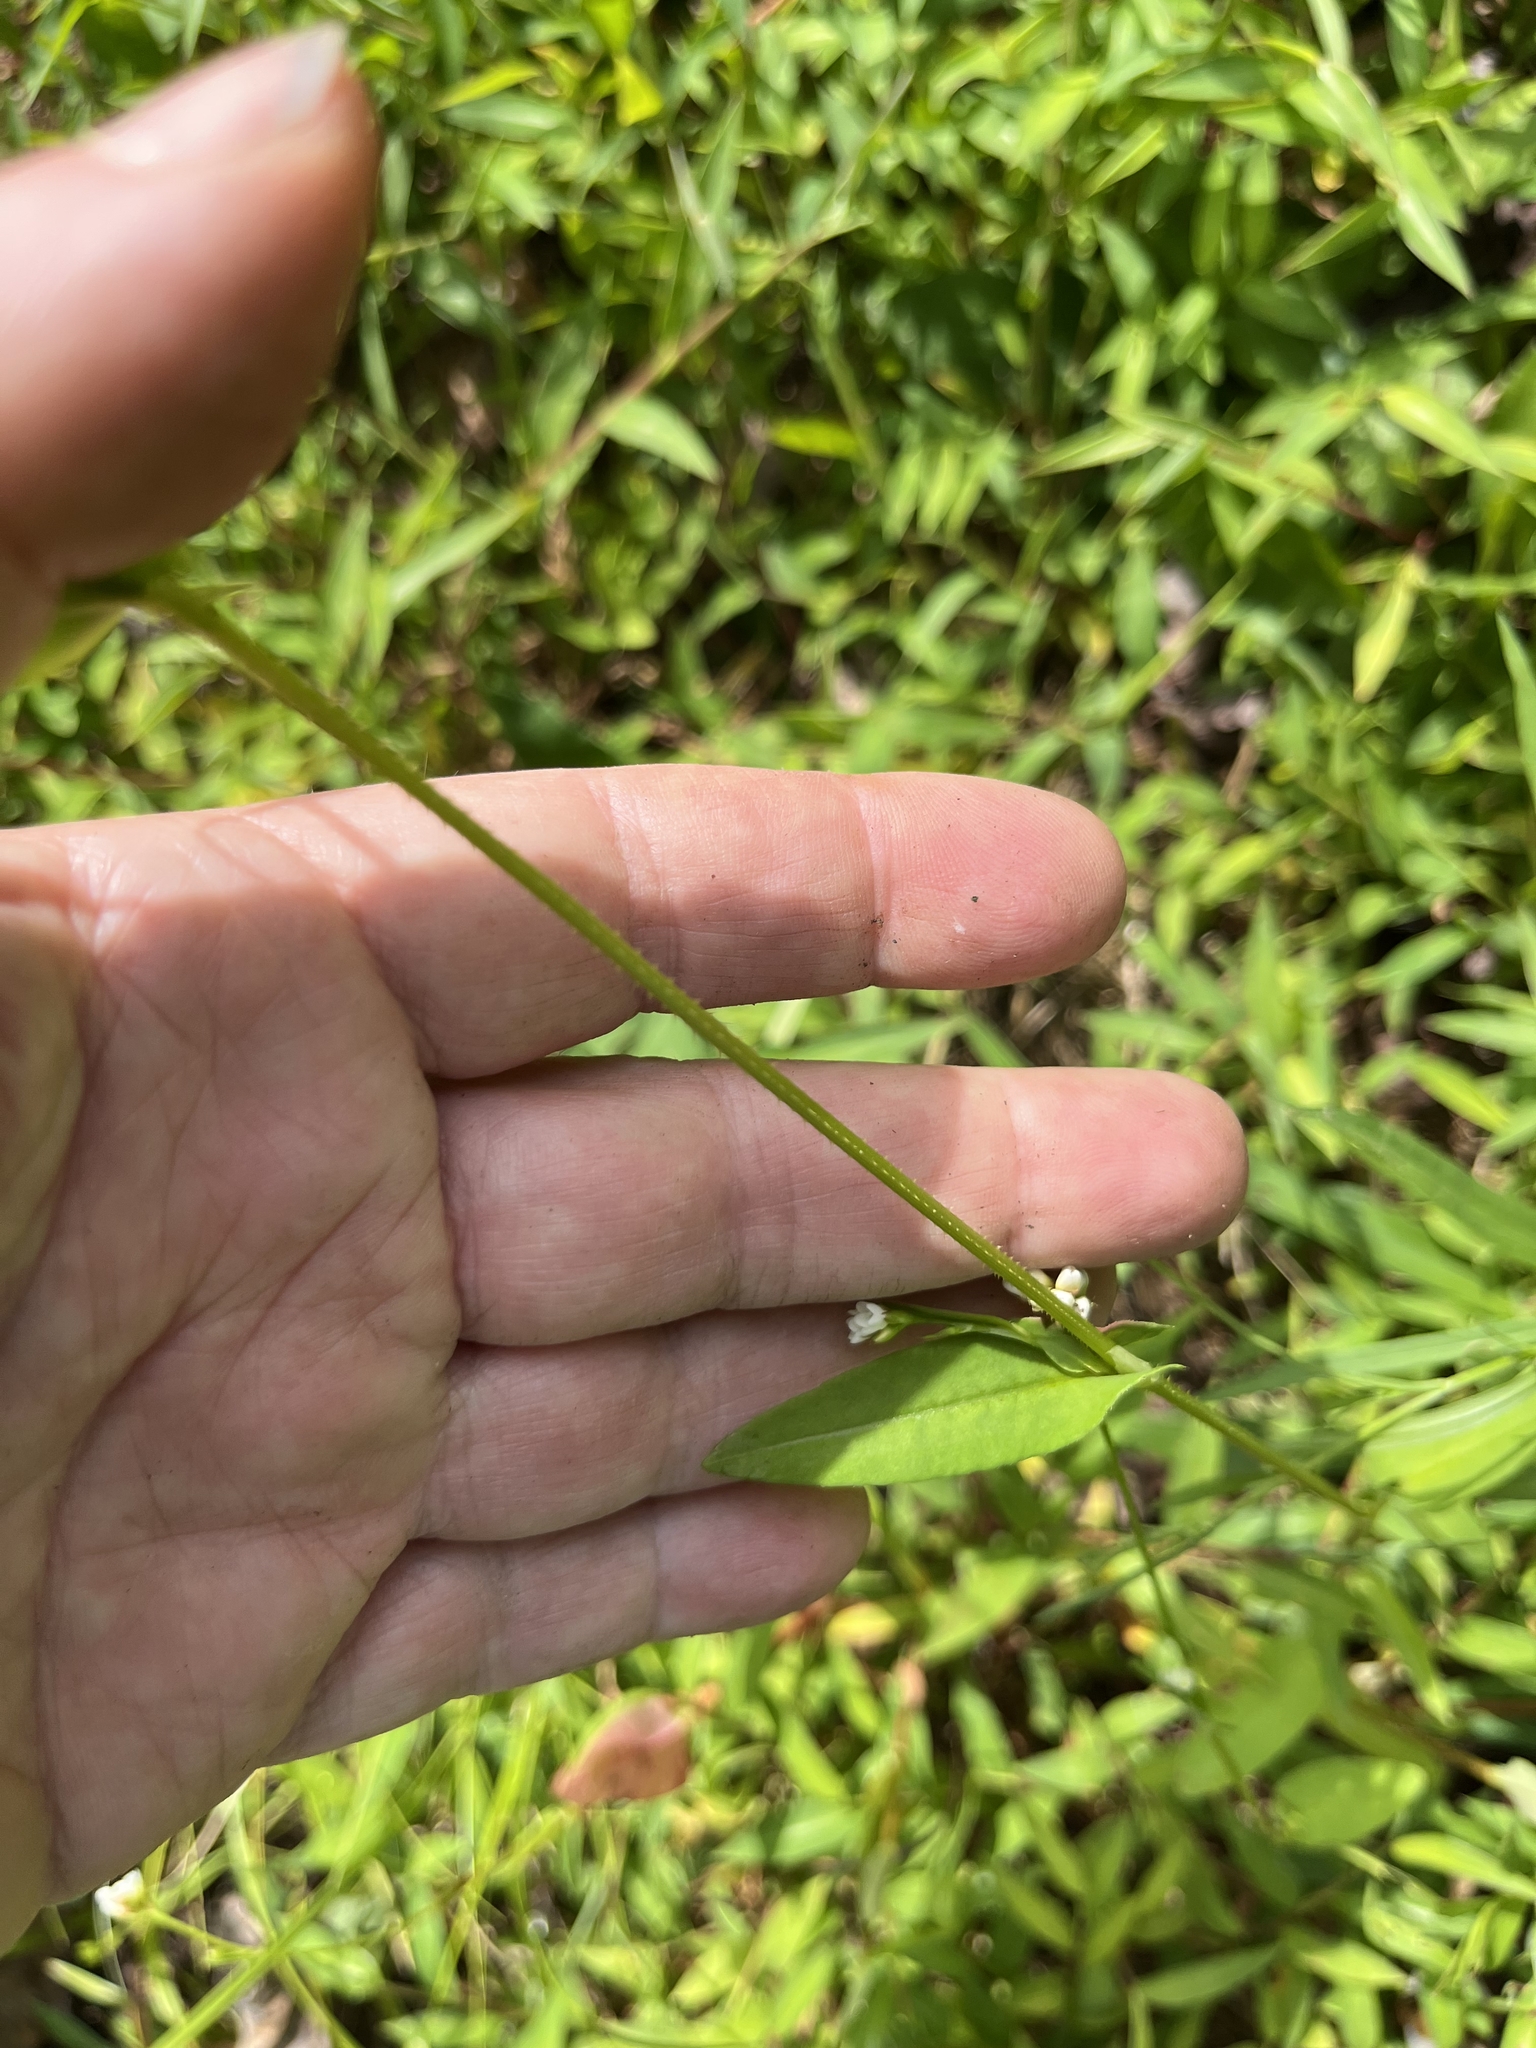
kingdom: Plantae
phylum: Tracheophyta
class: Magnoliopsida
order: Caryophyllales
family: Polygonaceae
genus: Persicaria
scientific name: Persicaria sagittata
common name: American tearthumb
